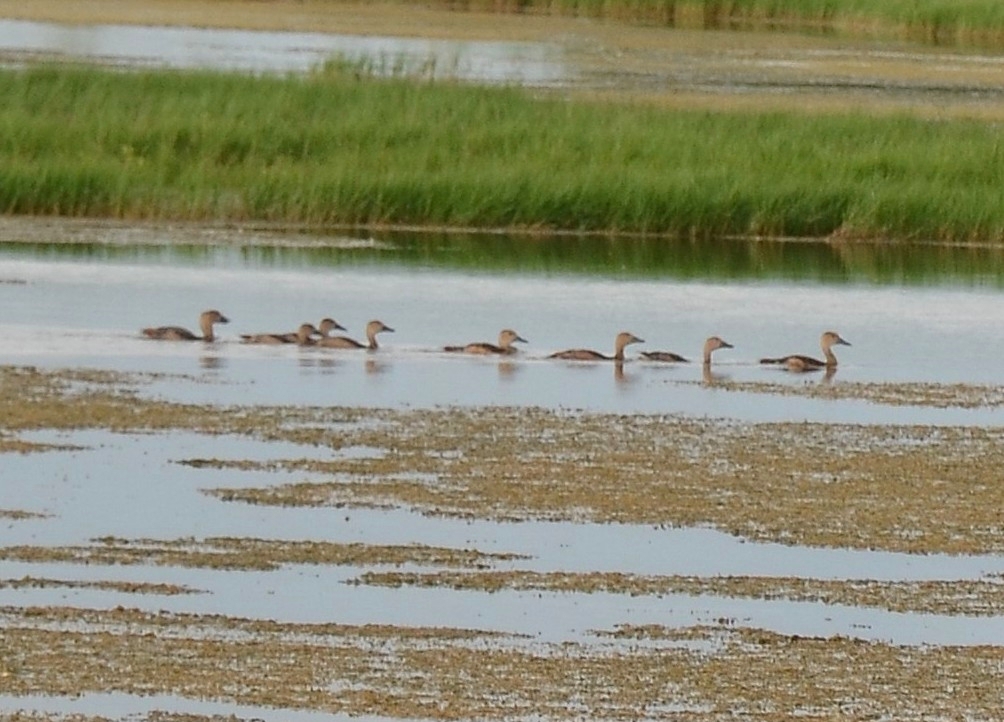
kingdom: Animalia
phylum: Chordata
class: Aves
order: Anseriformes
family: Anatidae
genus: Dendrocygna
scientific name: Dendrocygna javanica
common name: Lesser whistling-duck
